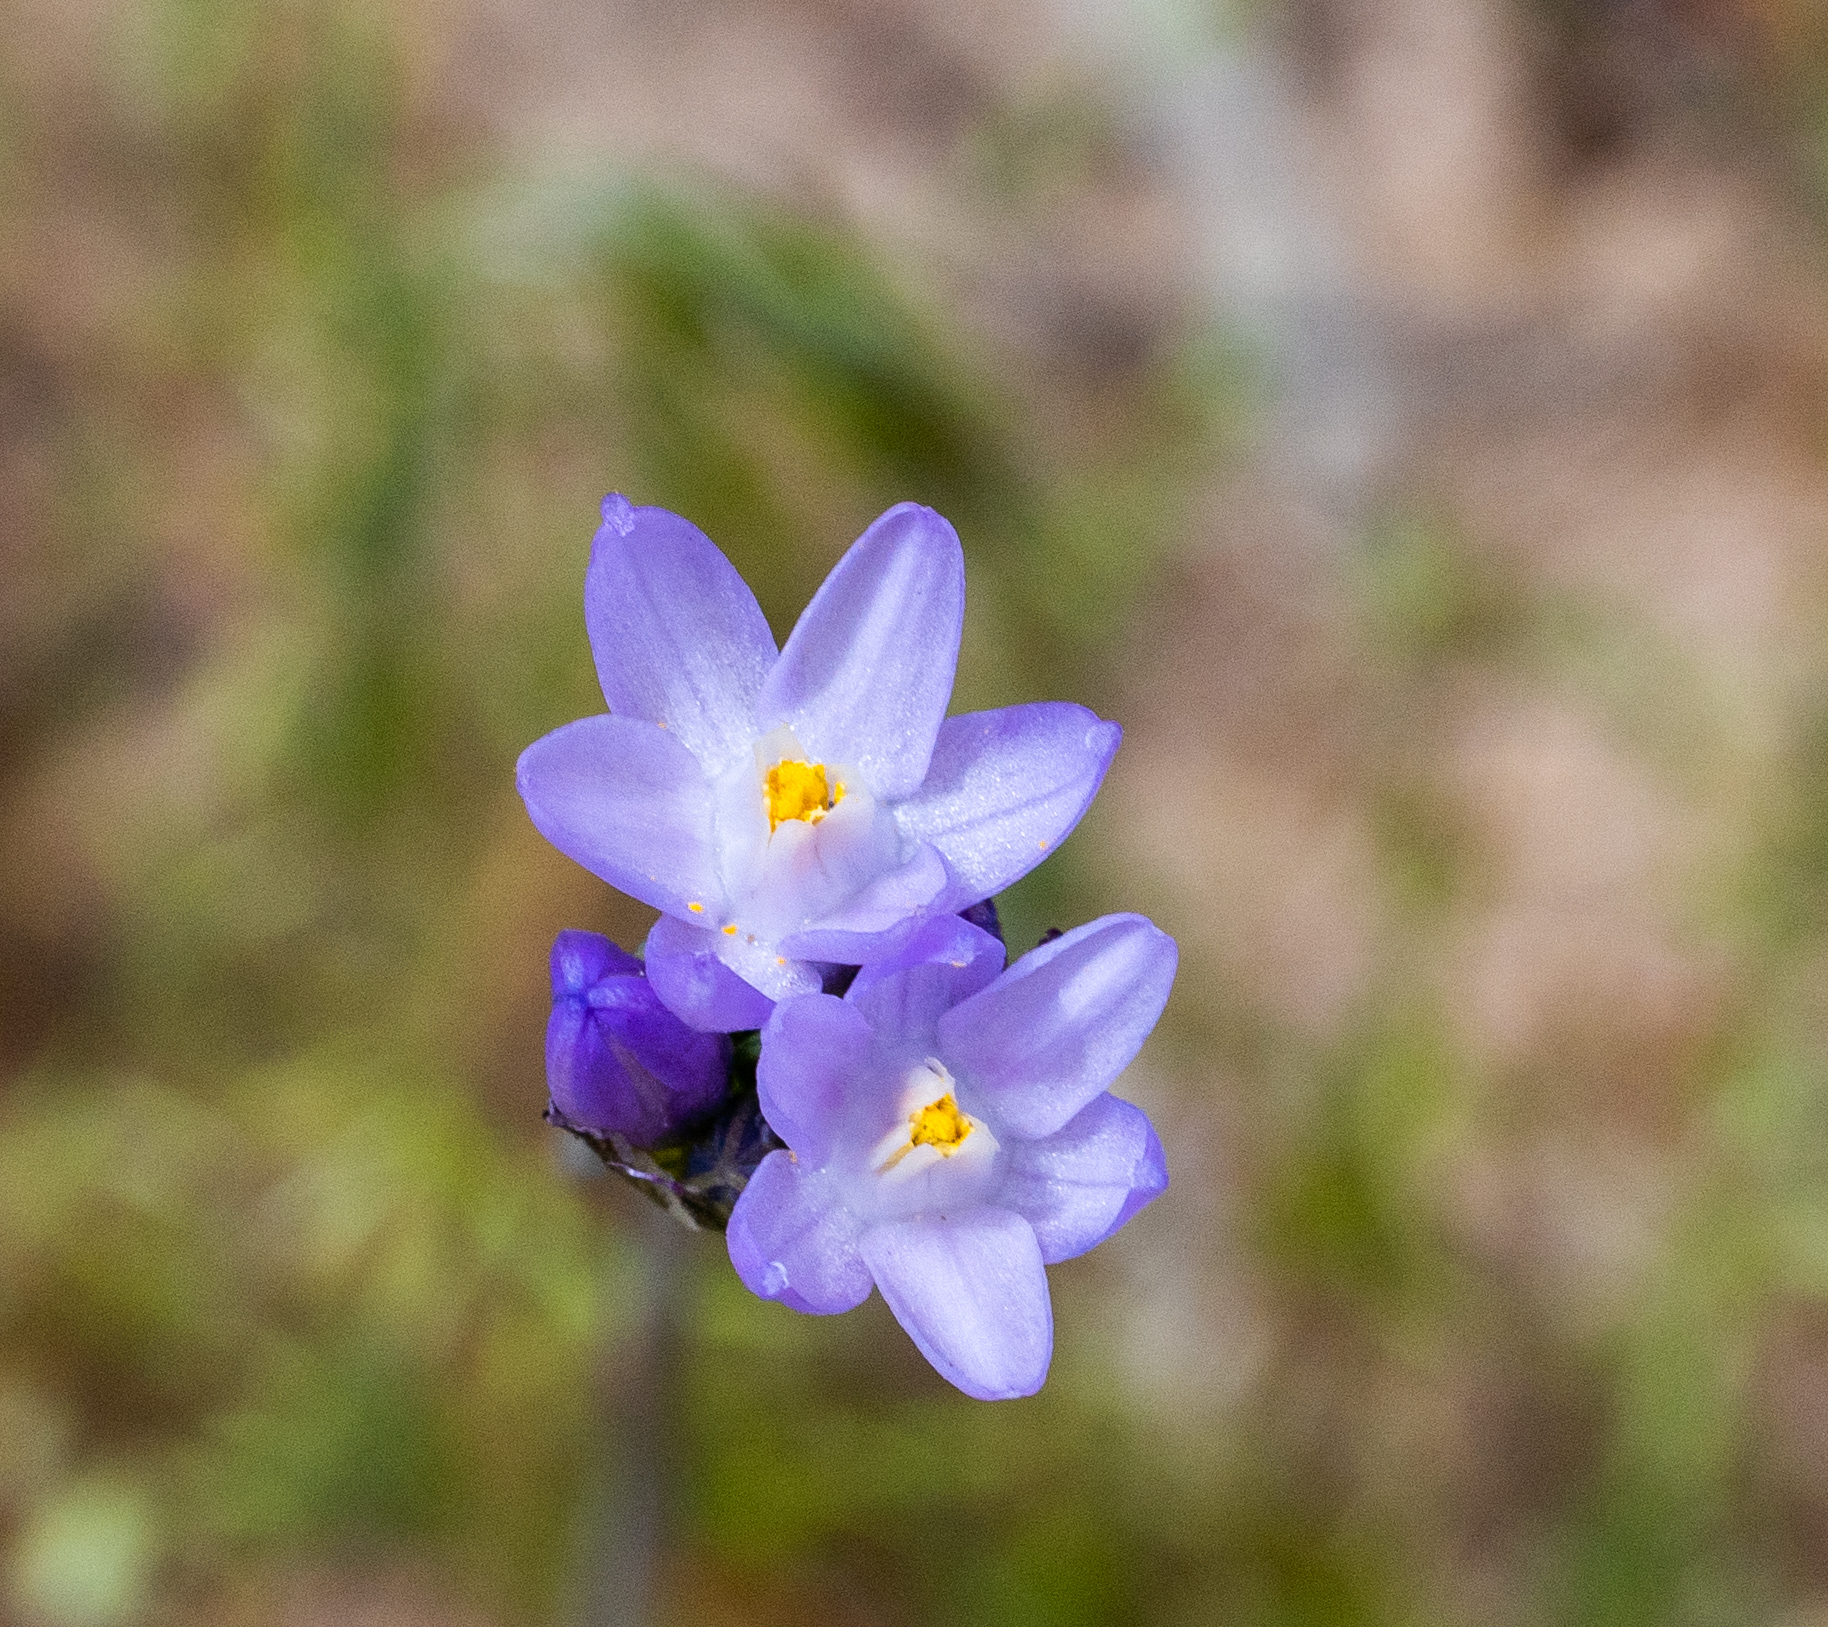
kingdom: Plantae
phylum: Tracheophyta
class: Liliopsida
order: Asparagales
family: Asparagaceae
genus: Dipterostemon
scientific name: Dipterostemon capitatus
